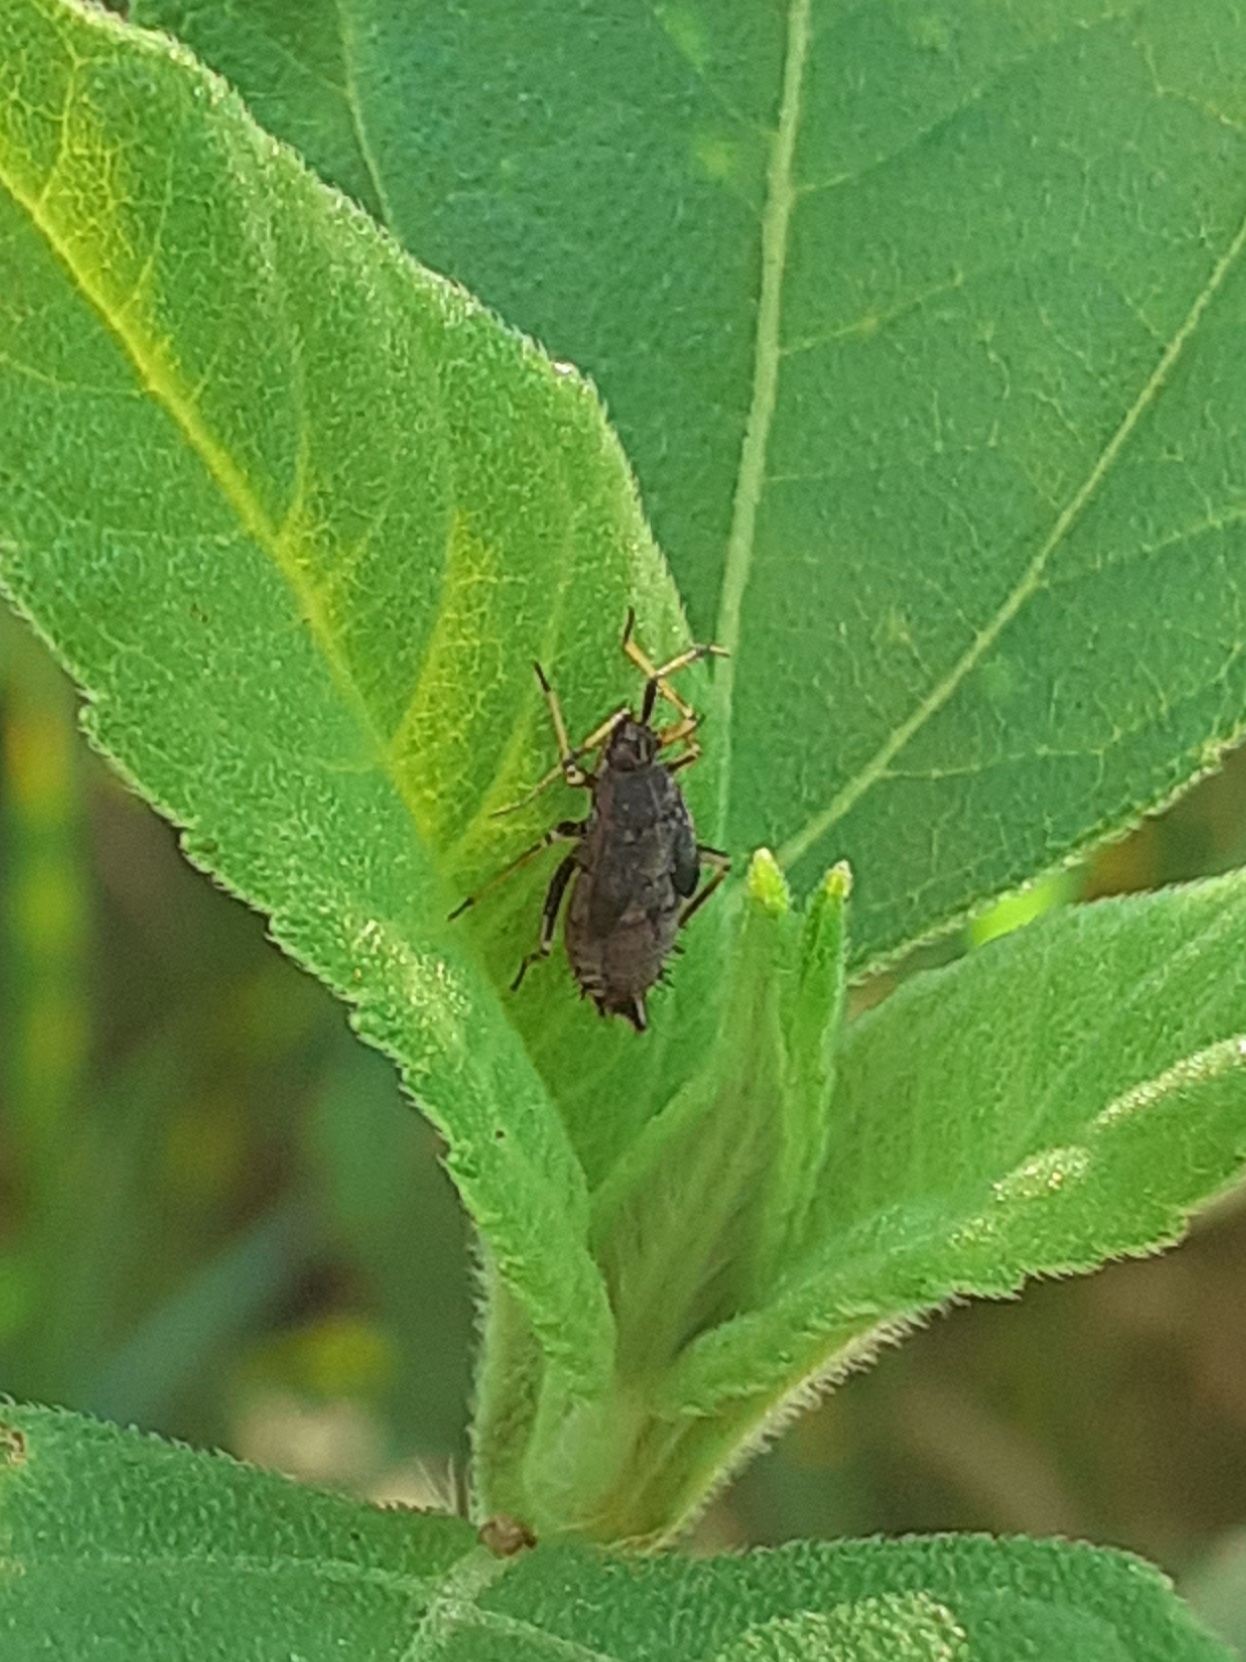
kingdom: Animalia
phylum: Arthropoda
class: Insecta
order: Hemiptera
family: Miridae
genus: Deraeocoris
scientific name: Deraeocoris ruber
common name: Plant bug
